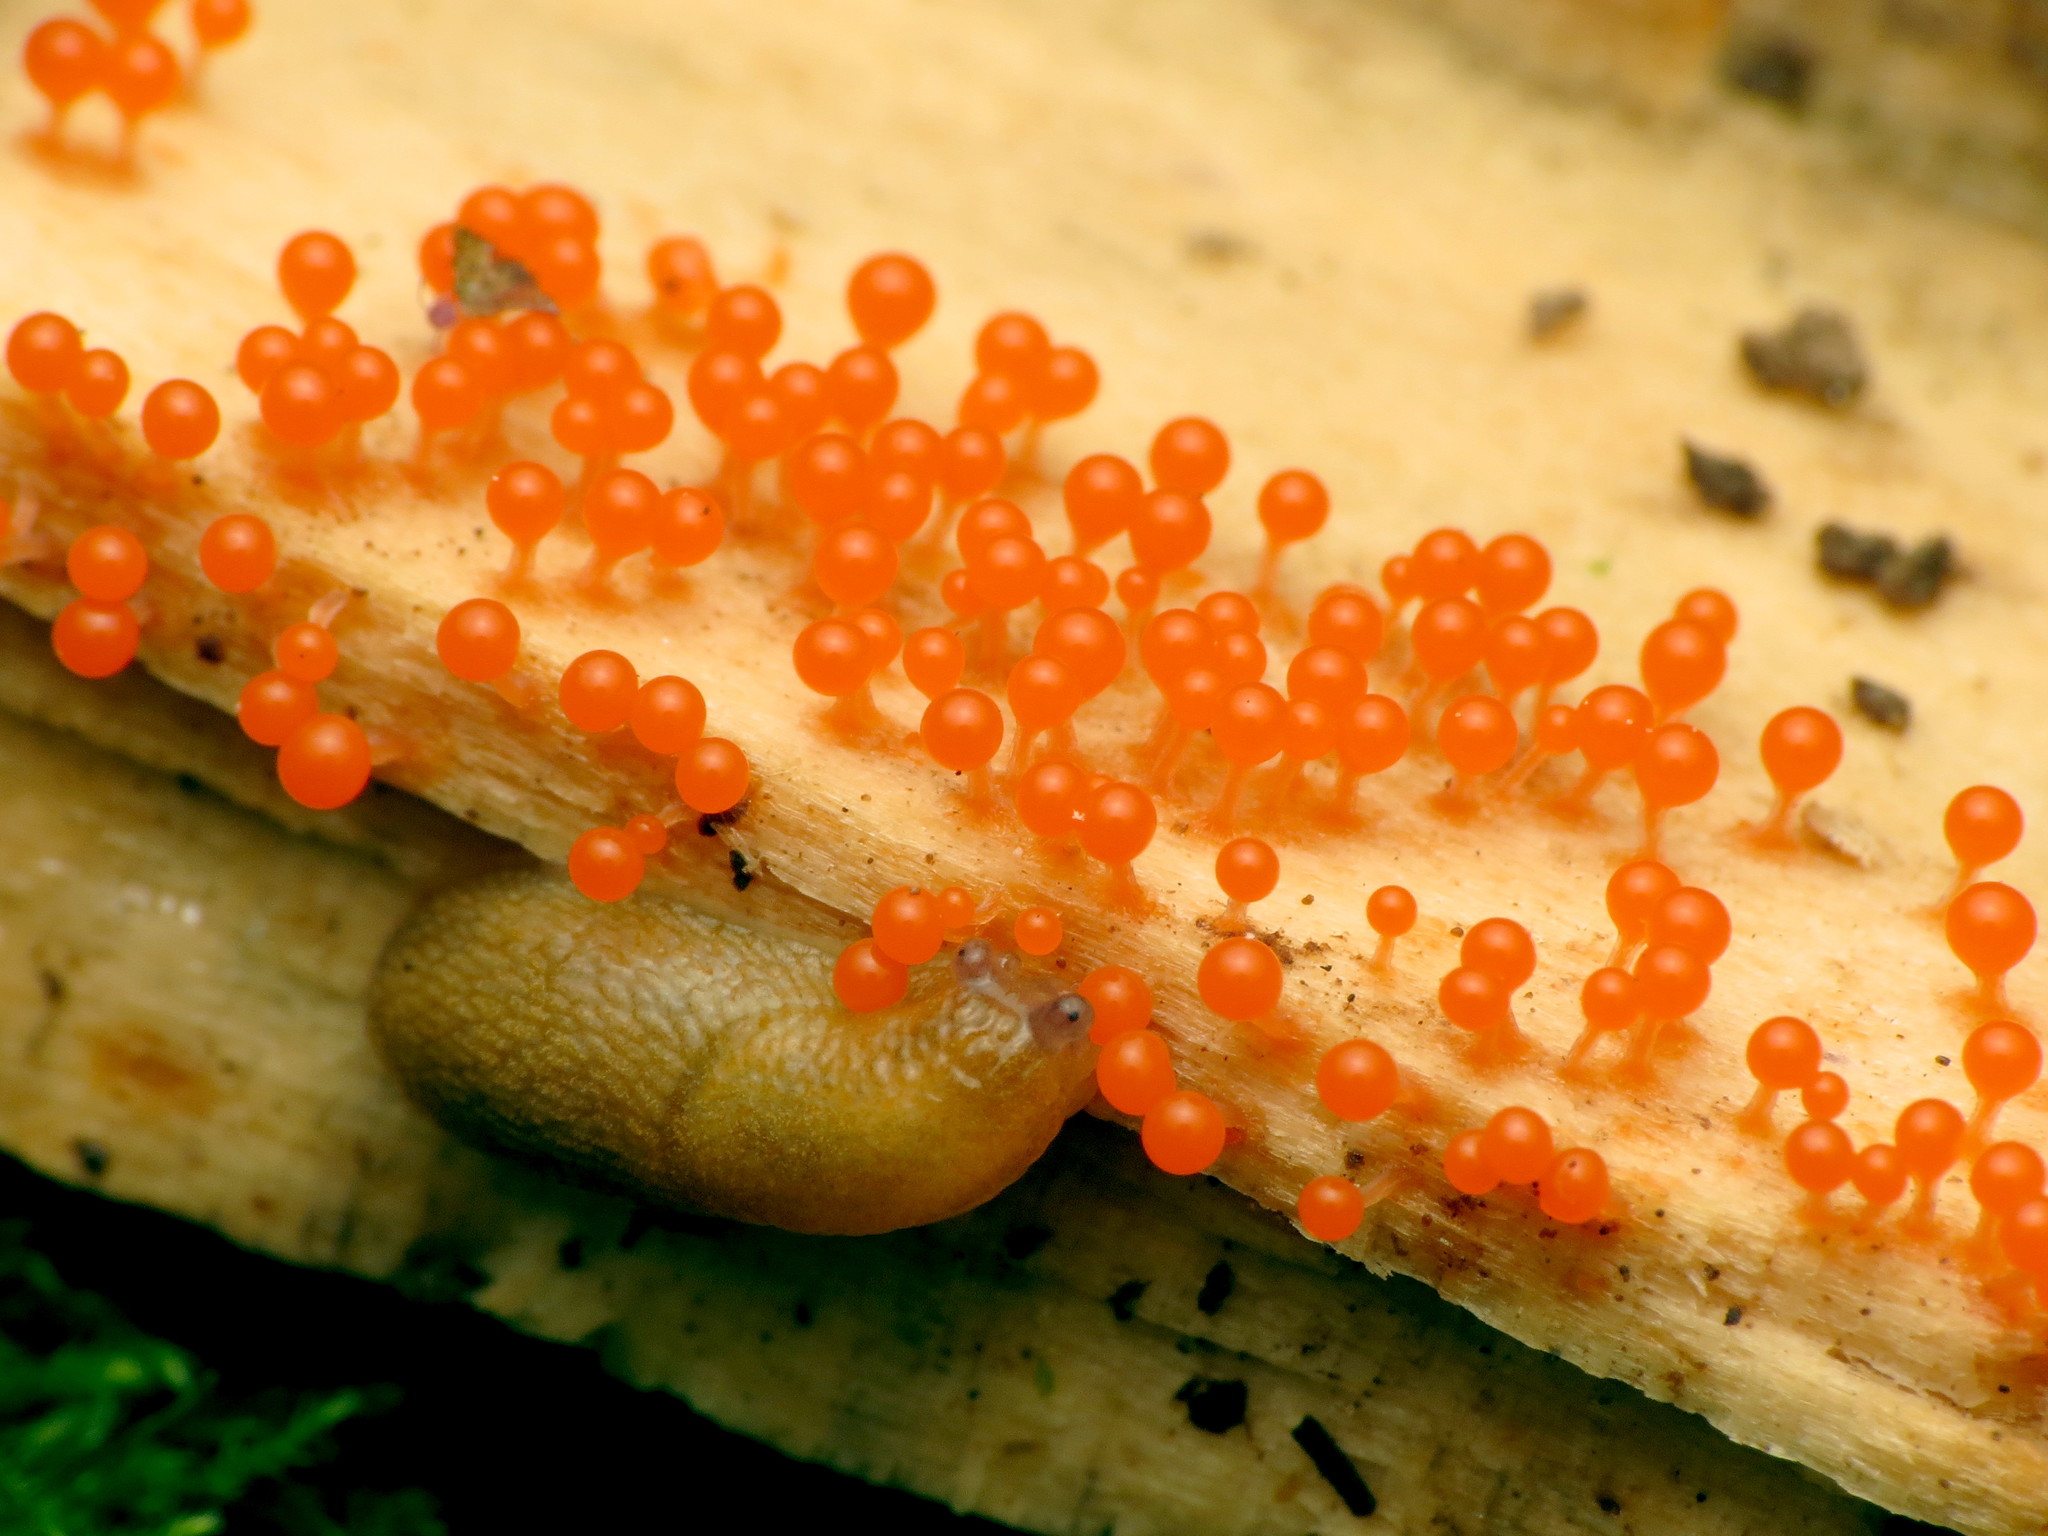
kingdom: Protozoa
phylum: Mycetozoa
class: Myxomycetes
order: Trichiales
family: Arcyriaceae
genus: Hemitrichia
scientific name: Hemitrichia decipiens
